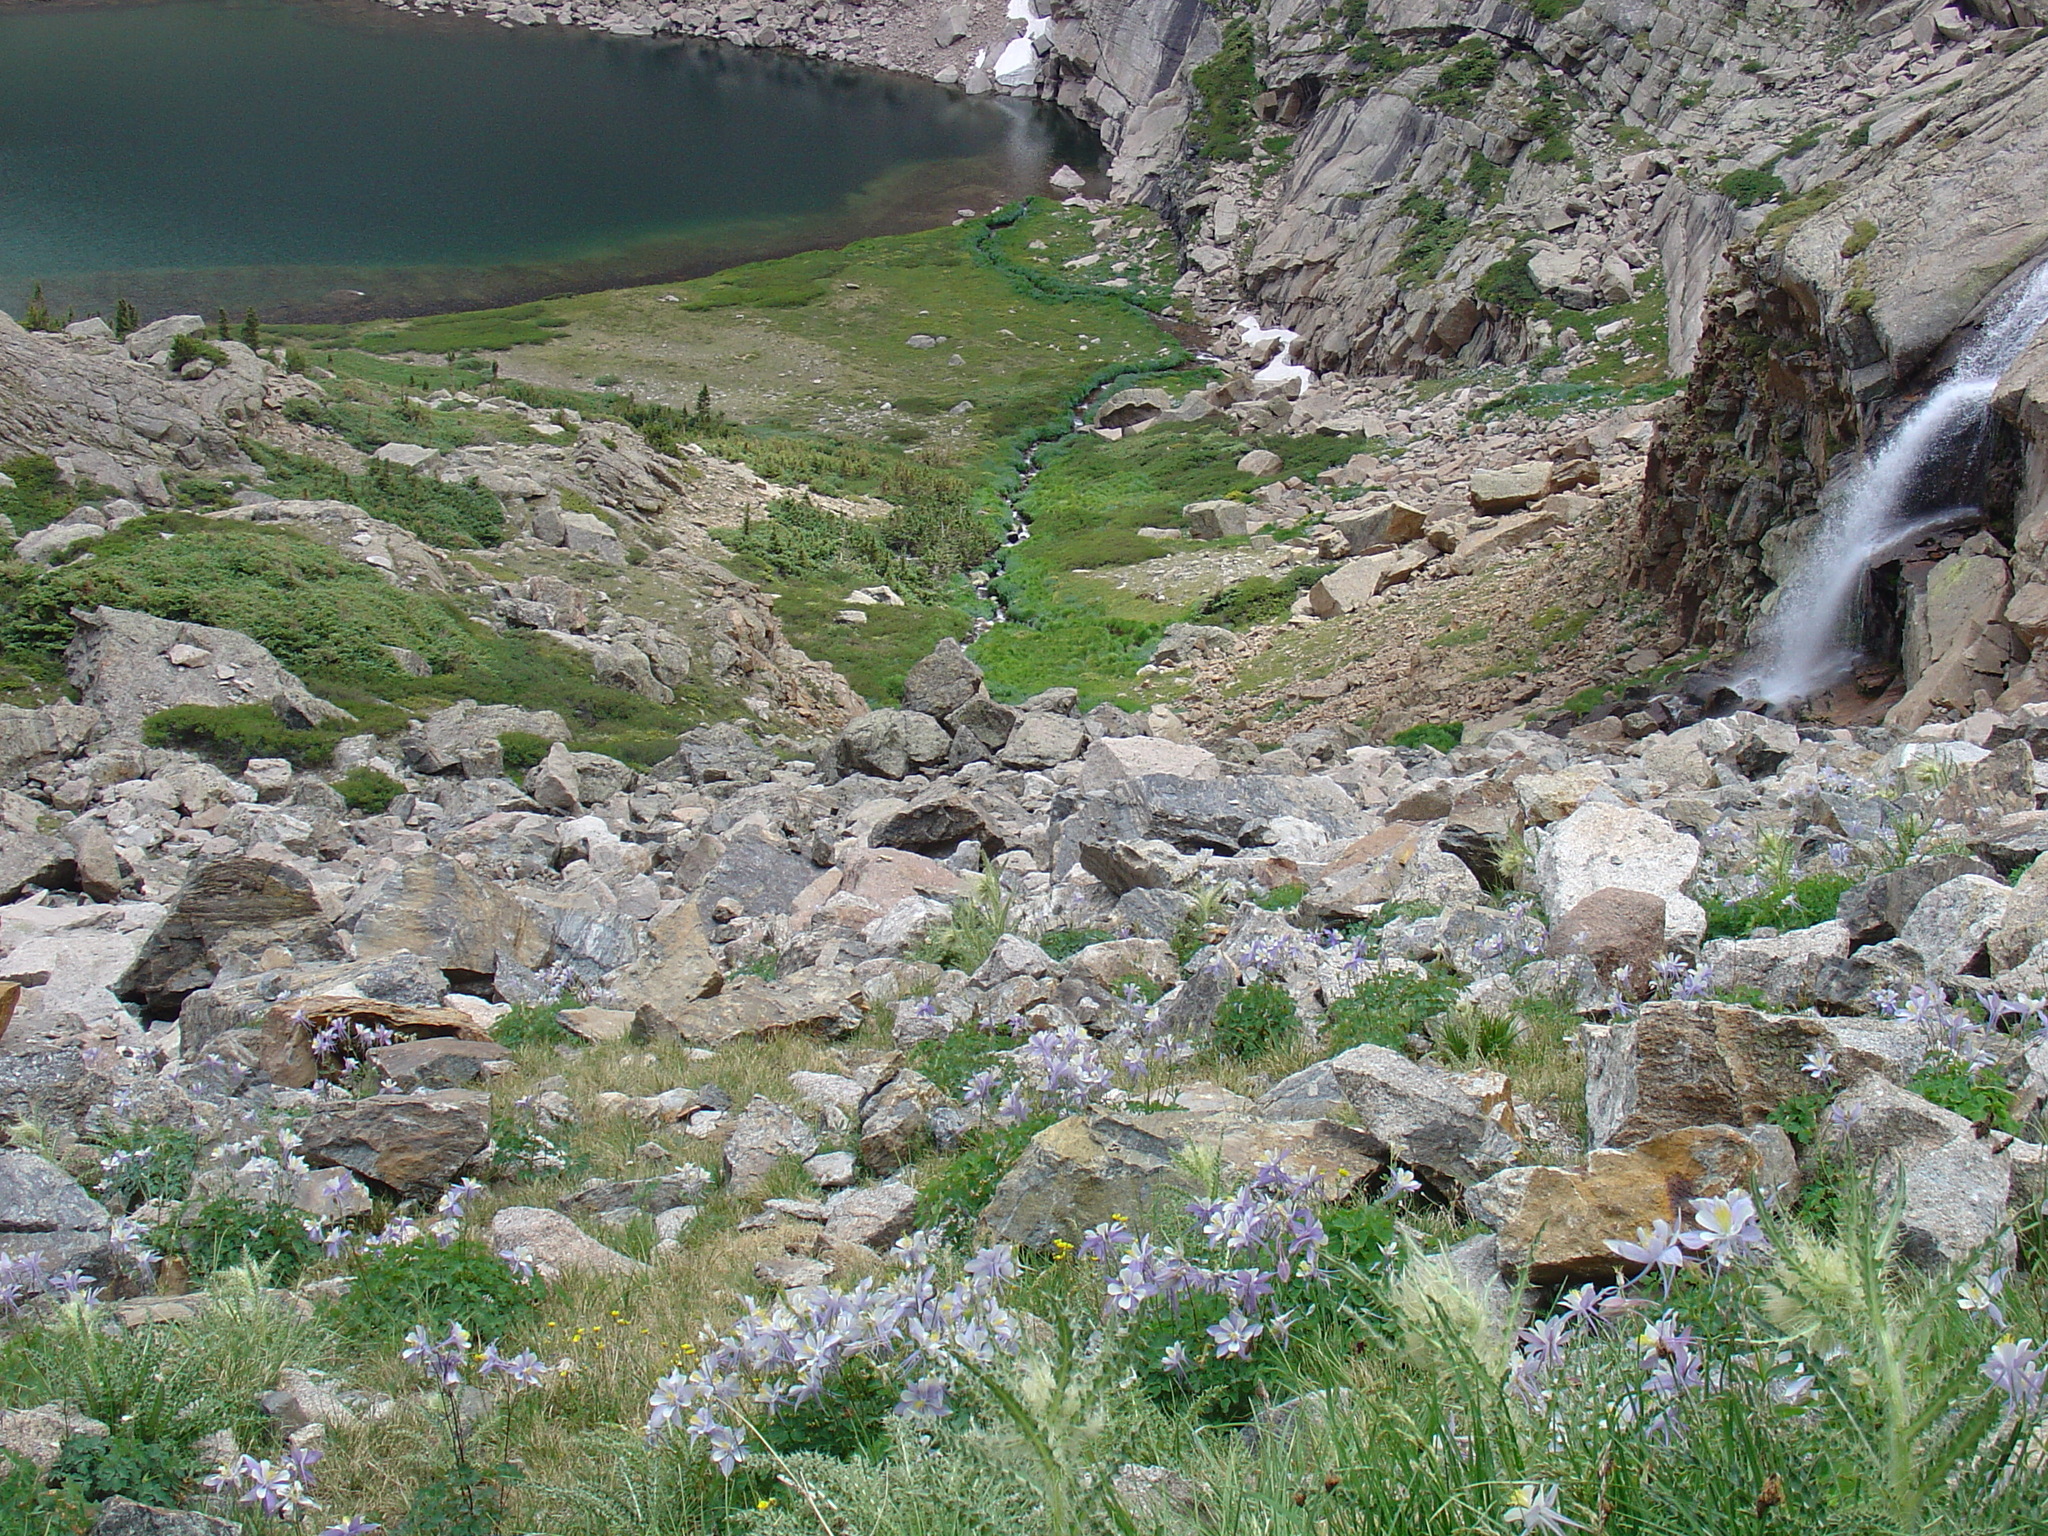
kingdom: Plantae
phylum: Tracheophyta
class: Magnoliopsida
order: Ranunculales
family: Ranunculaceae
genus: Aquilegia
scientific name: Aquilegia coerulea
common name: Rocky mountain columbine
